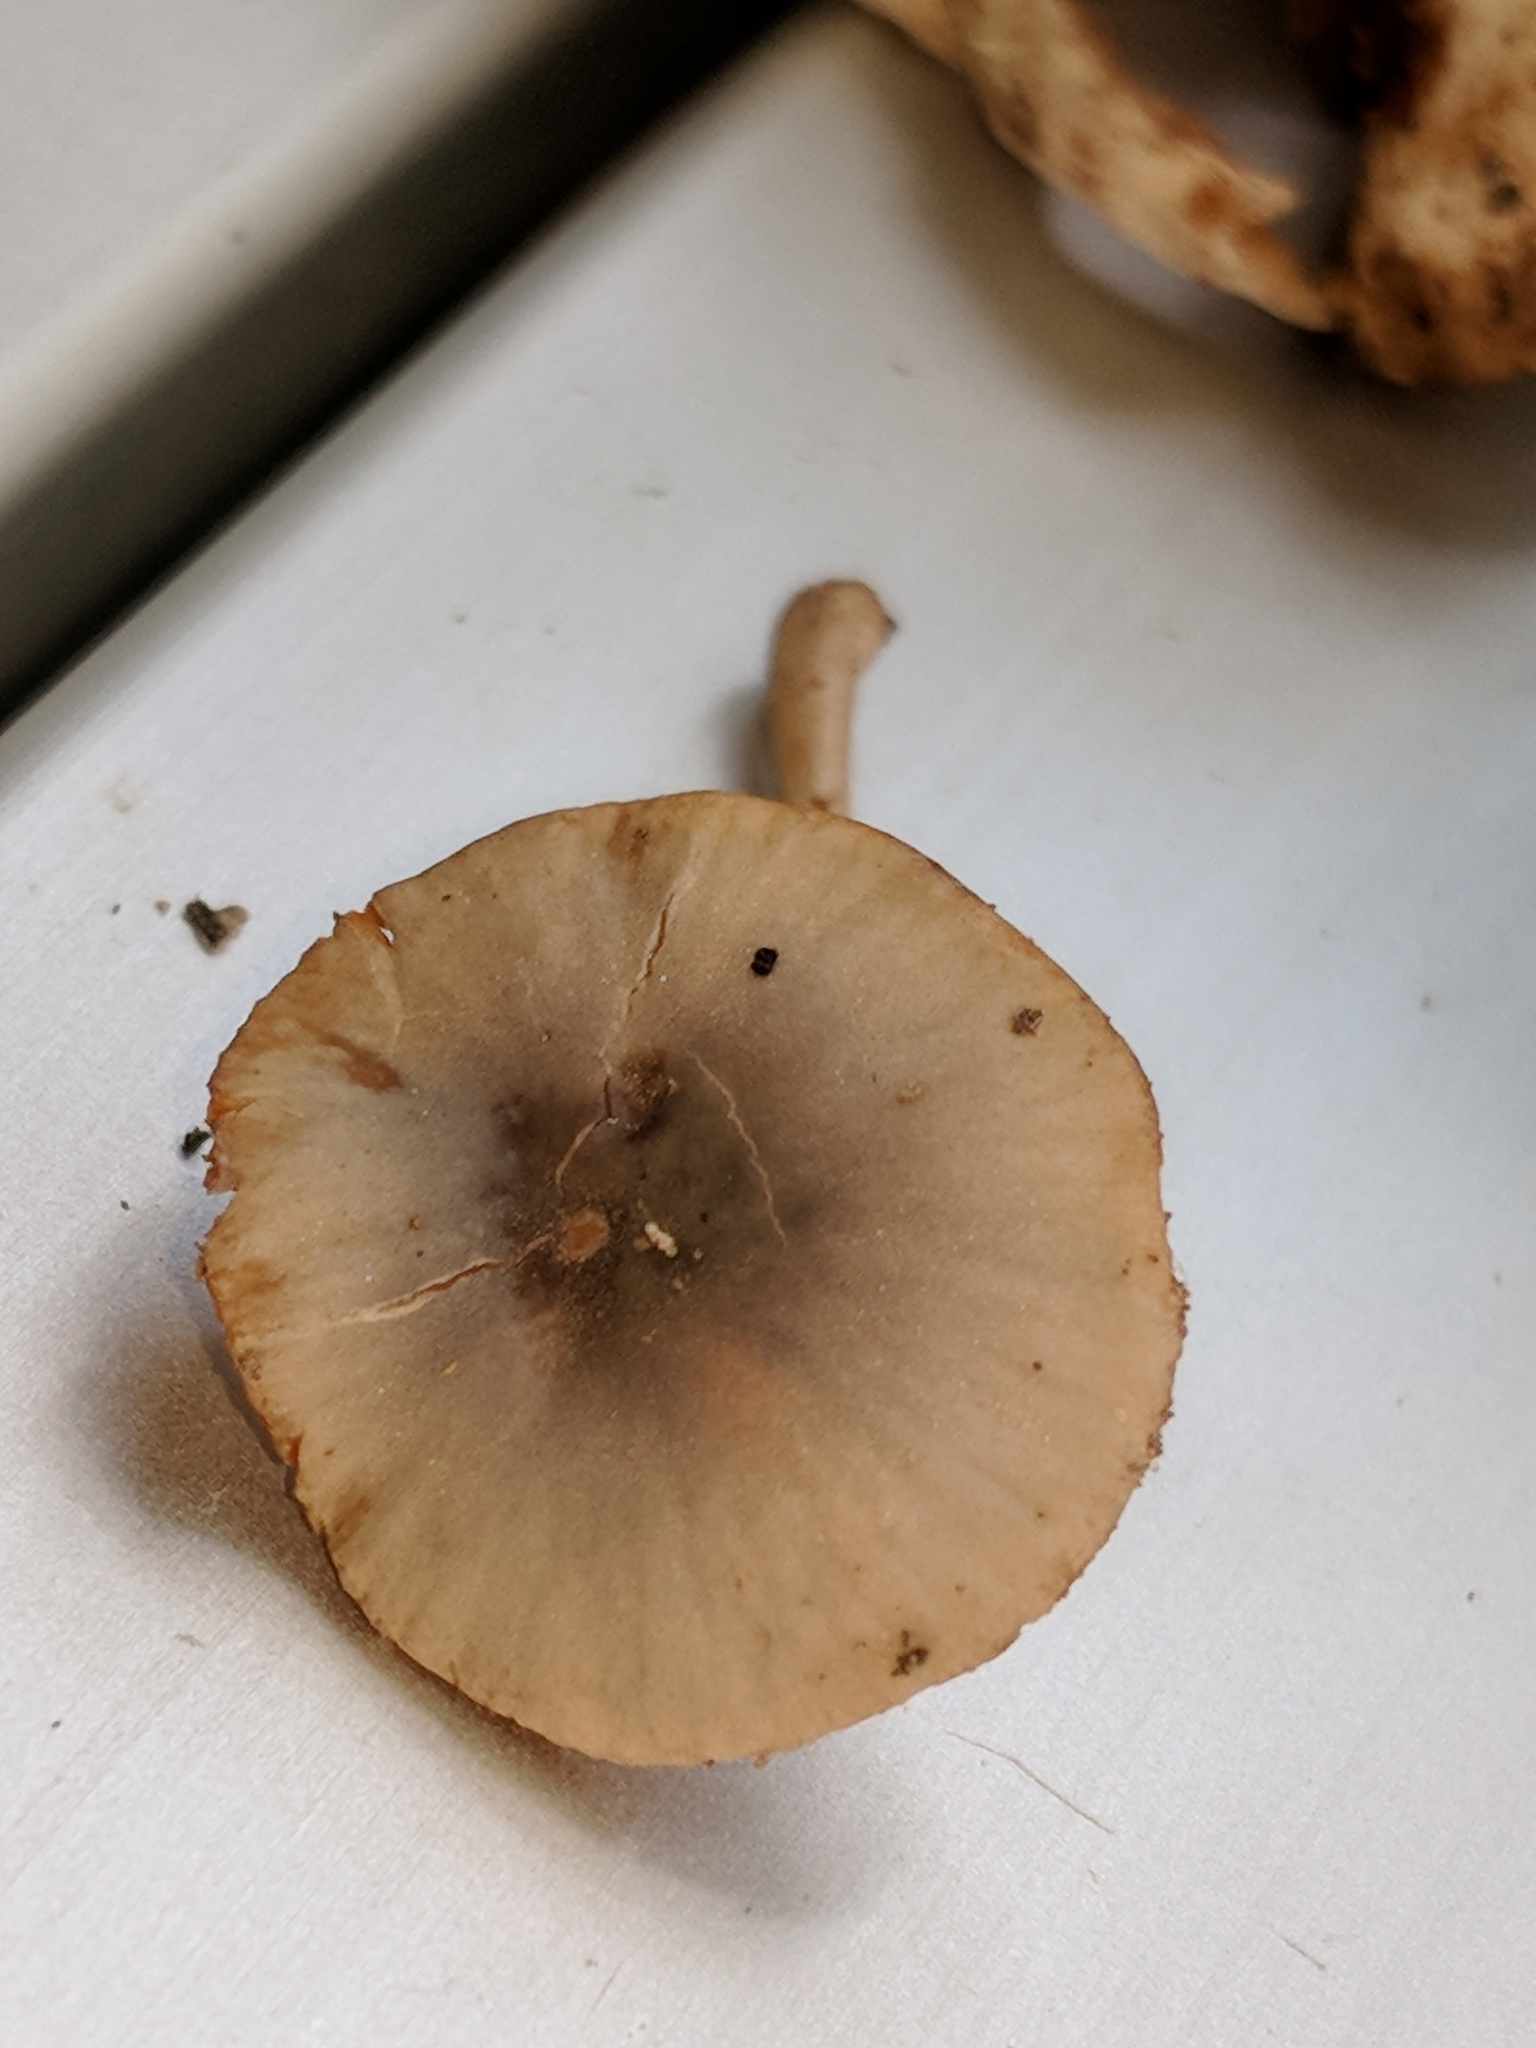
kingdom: Fungi
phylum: Basidiomycota
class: Agaricomycetes
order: Agaricales
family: Bolbitiaceae
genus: Bolbitius
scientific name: Bolbitius reticulatus
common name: Netted fieldcap
